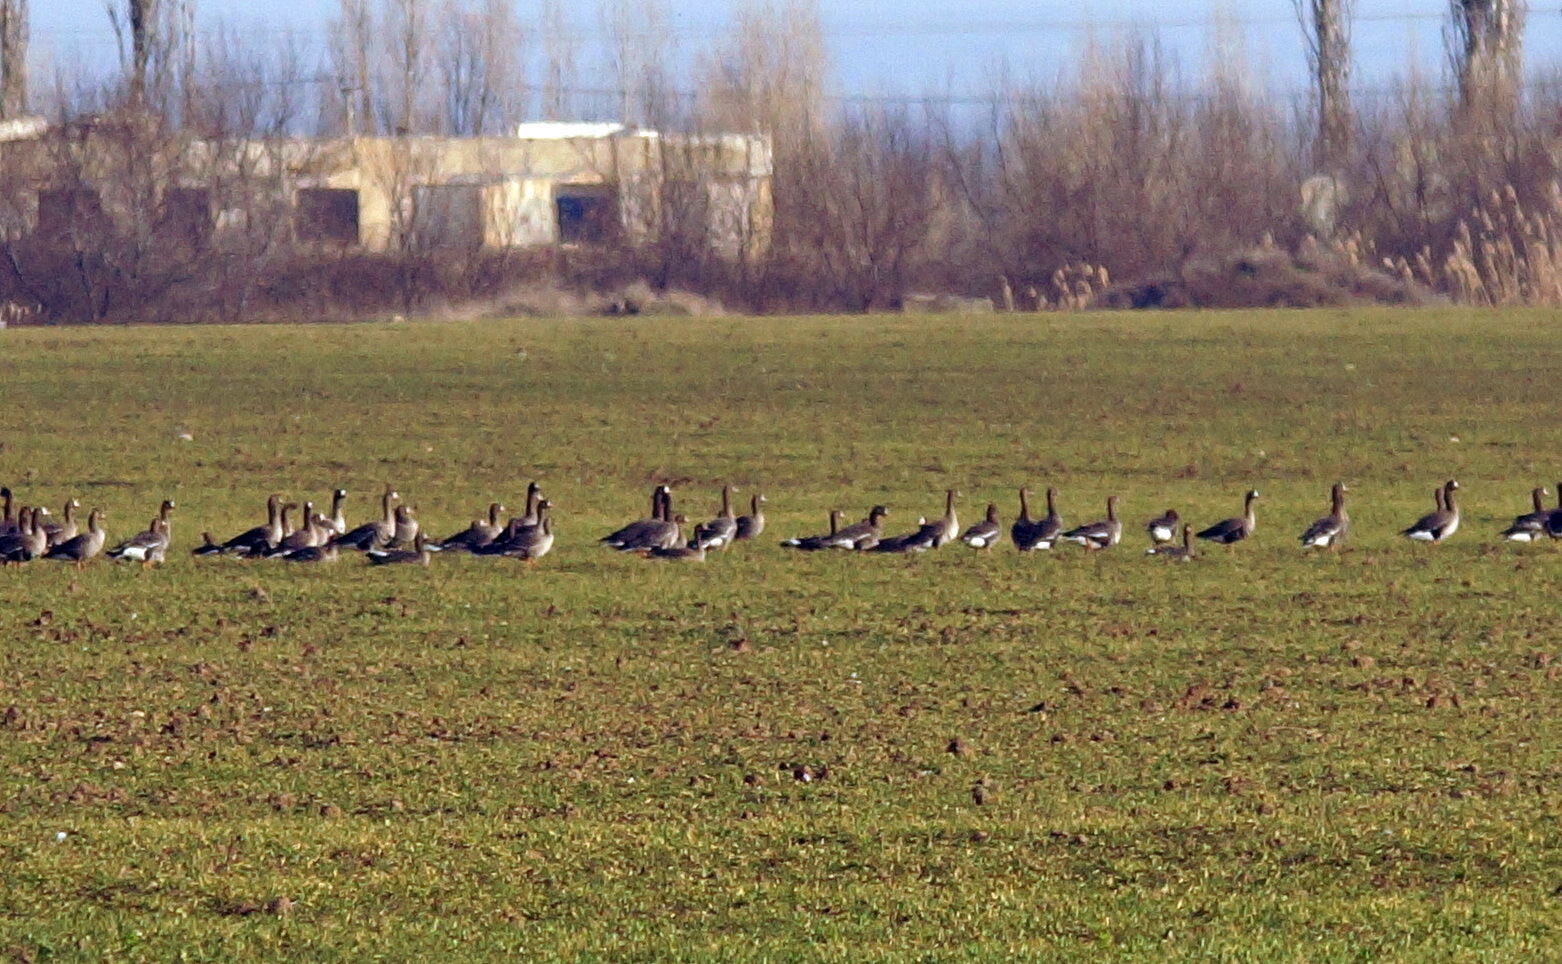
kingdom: Animalia
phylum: Chordata
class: Aves
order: Anseriformes
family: Anatidae
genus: Anser
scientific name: Anser albifrons
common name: Greater white-fronted goose
